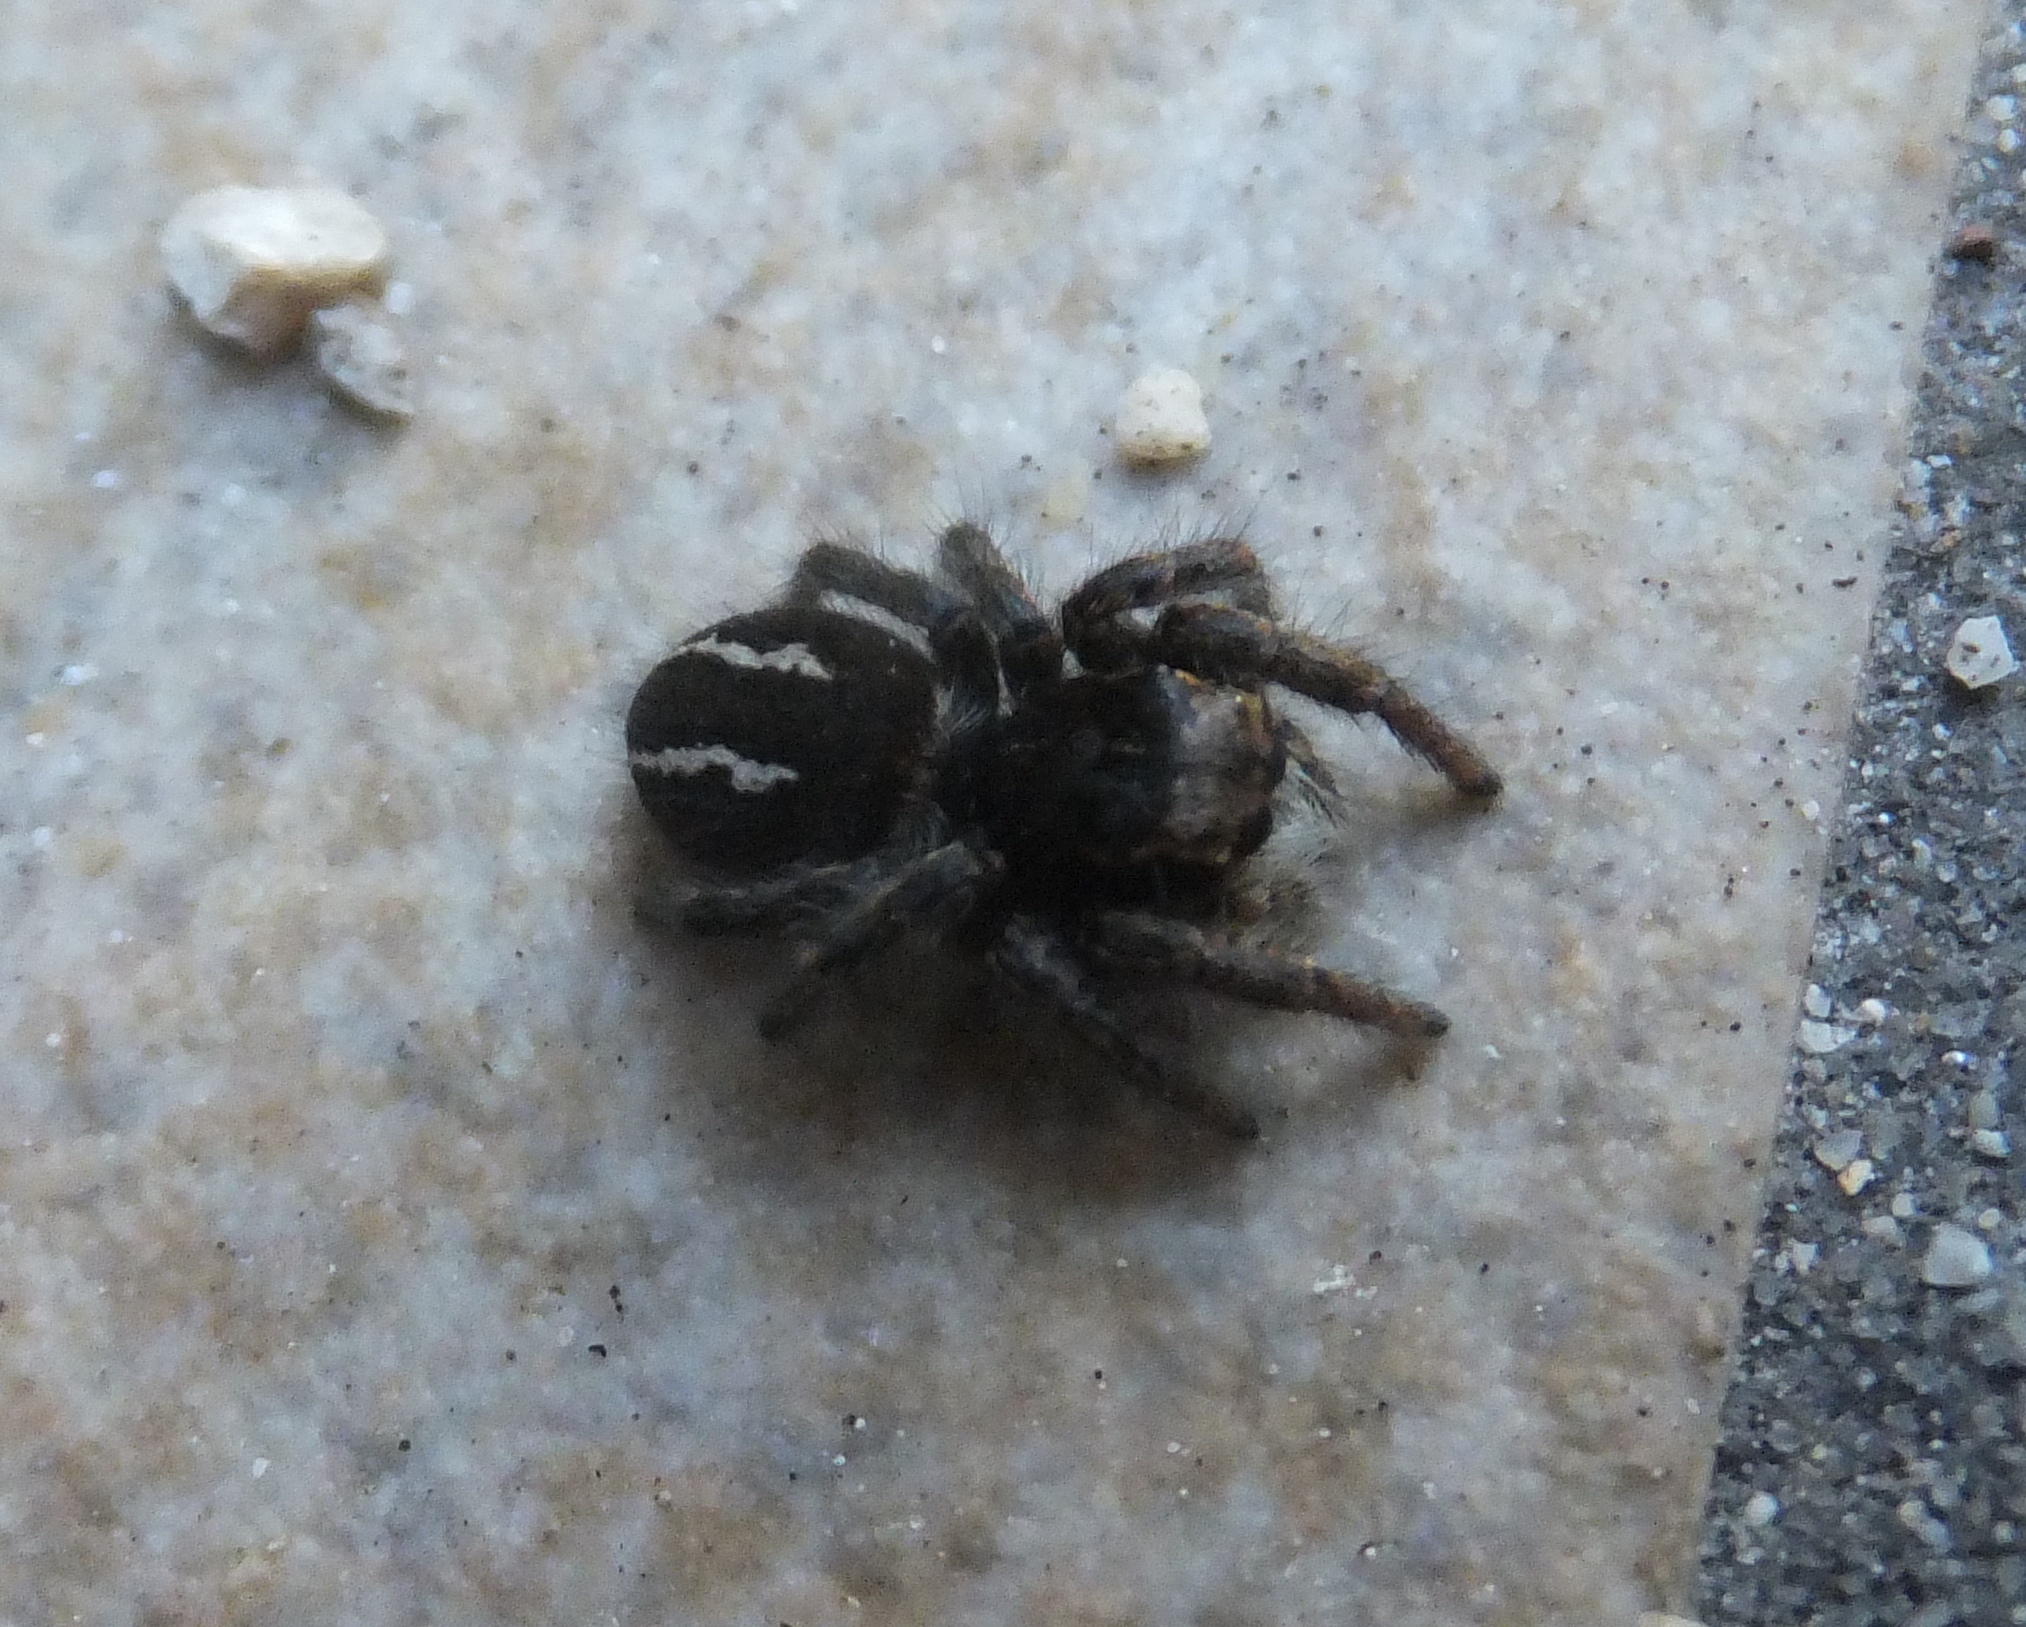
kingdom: Animalia
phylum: Arthropoda
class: Arachnida
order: Araneae
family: Salticidae
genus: Philaeus
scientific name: Philaeus chrysops
